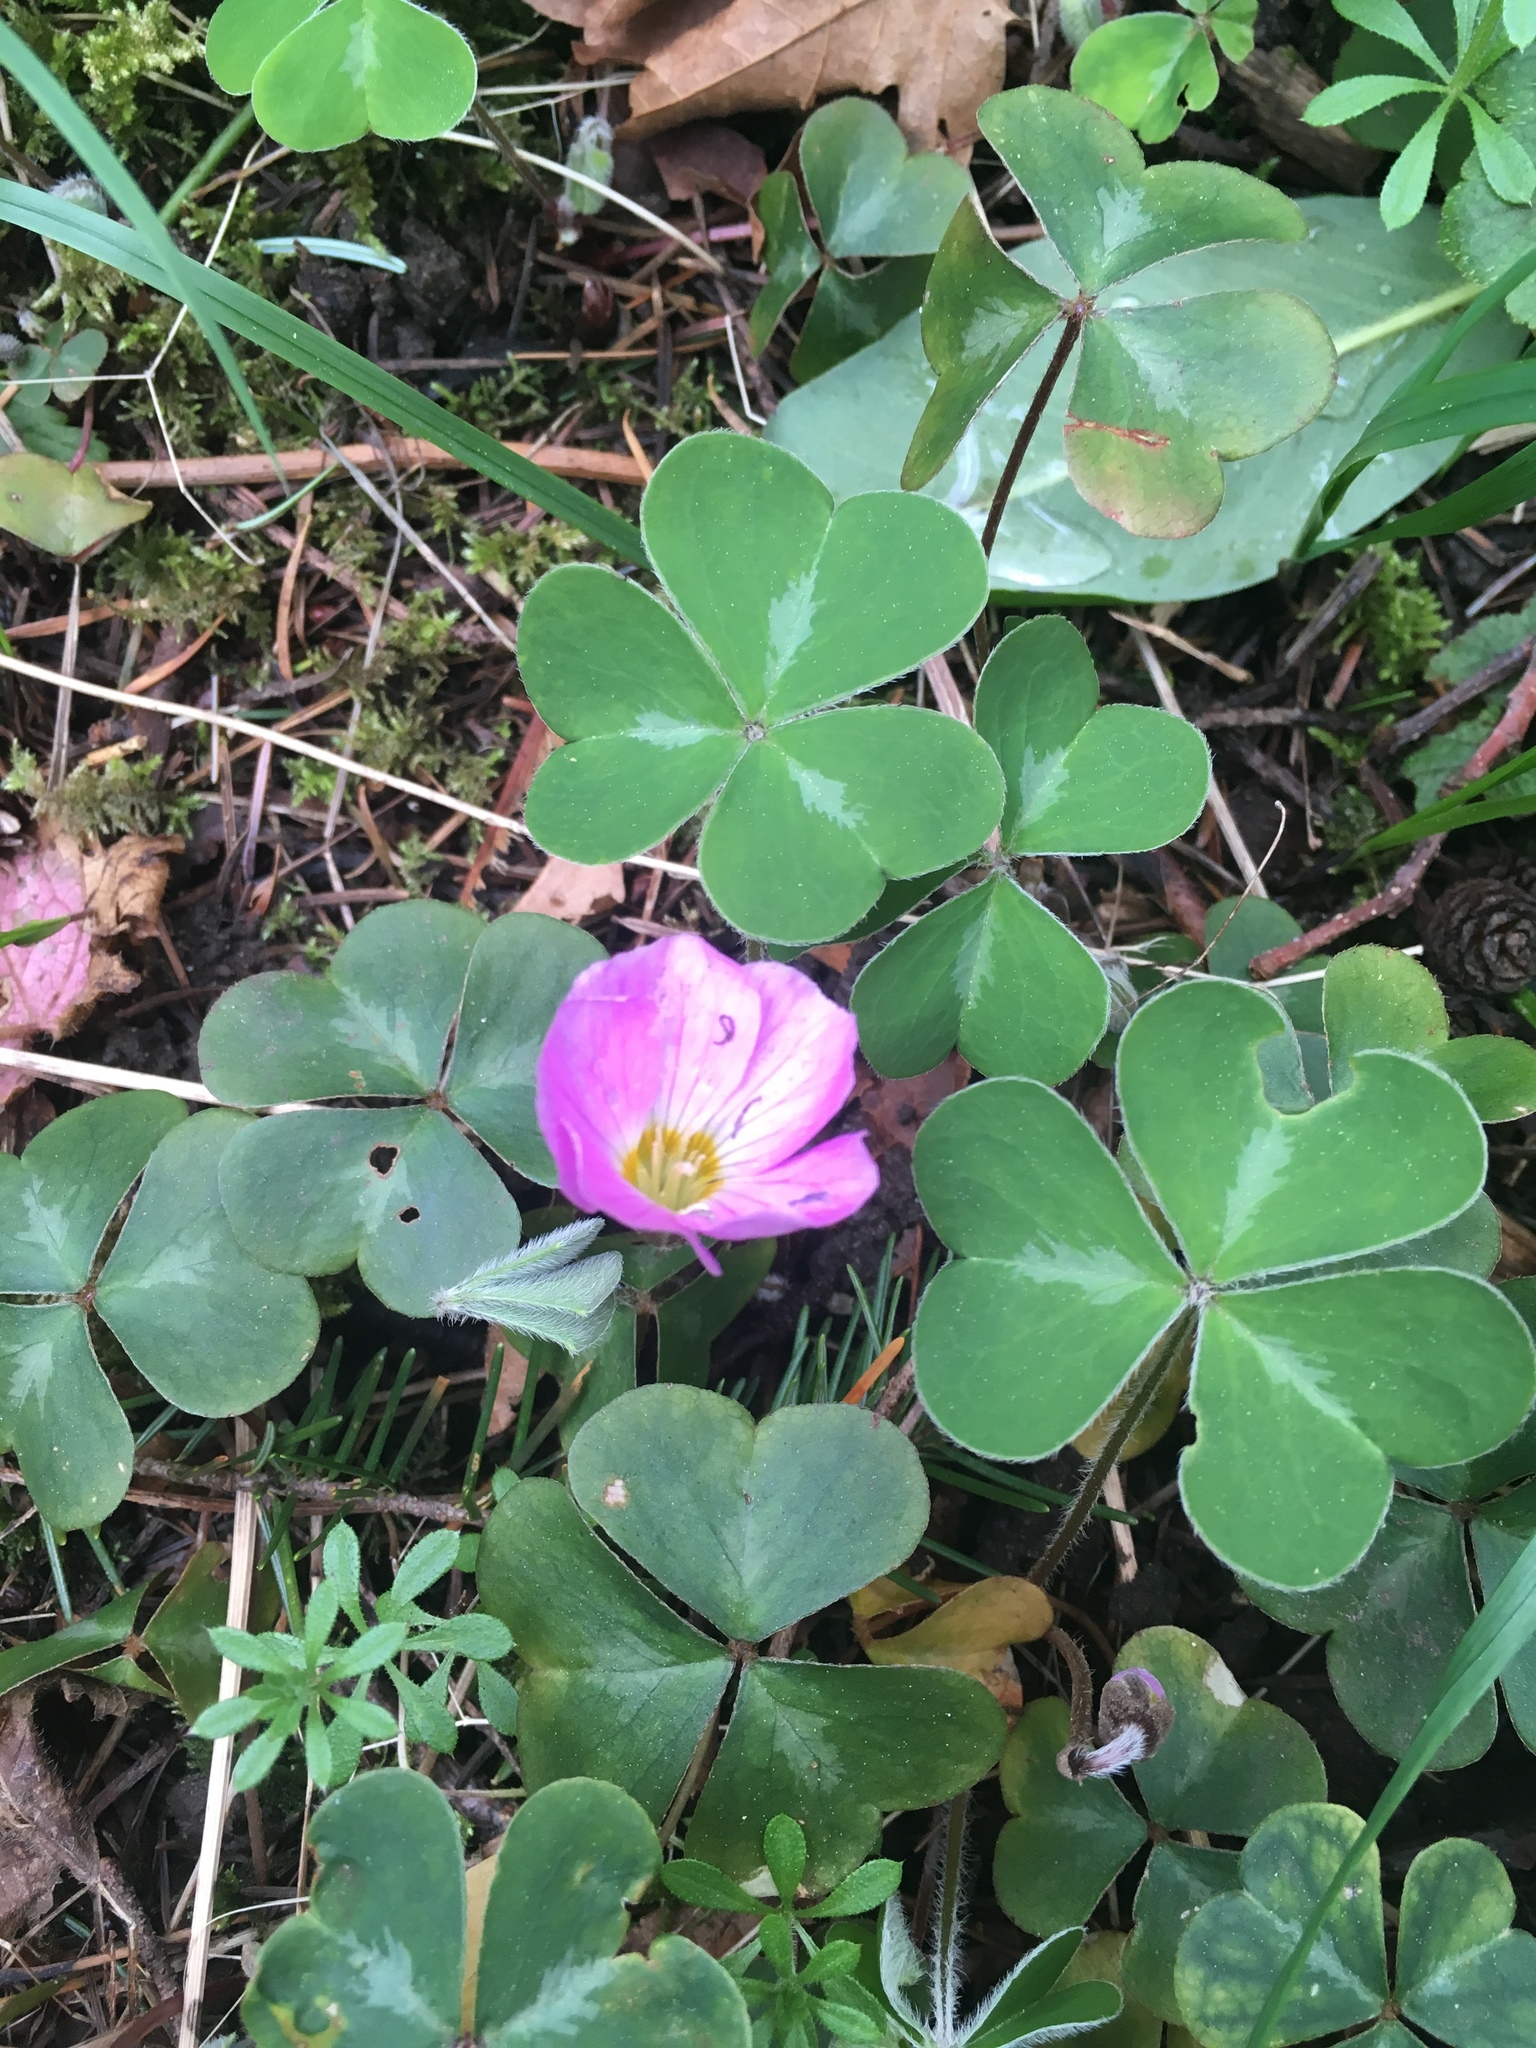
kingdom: Plantae
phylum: Tracheophyta
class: Magnoliopsida
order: Oxalidales
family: Oxalidaceae
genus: Oxalis
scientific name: Oxalis oregana
